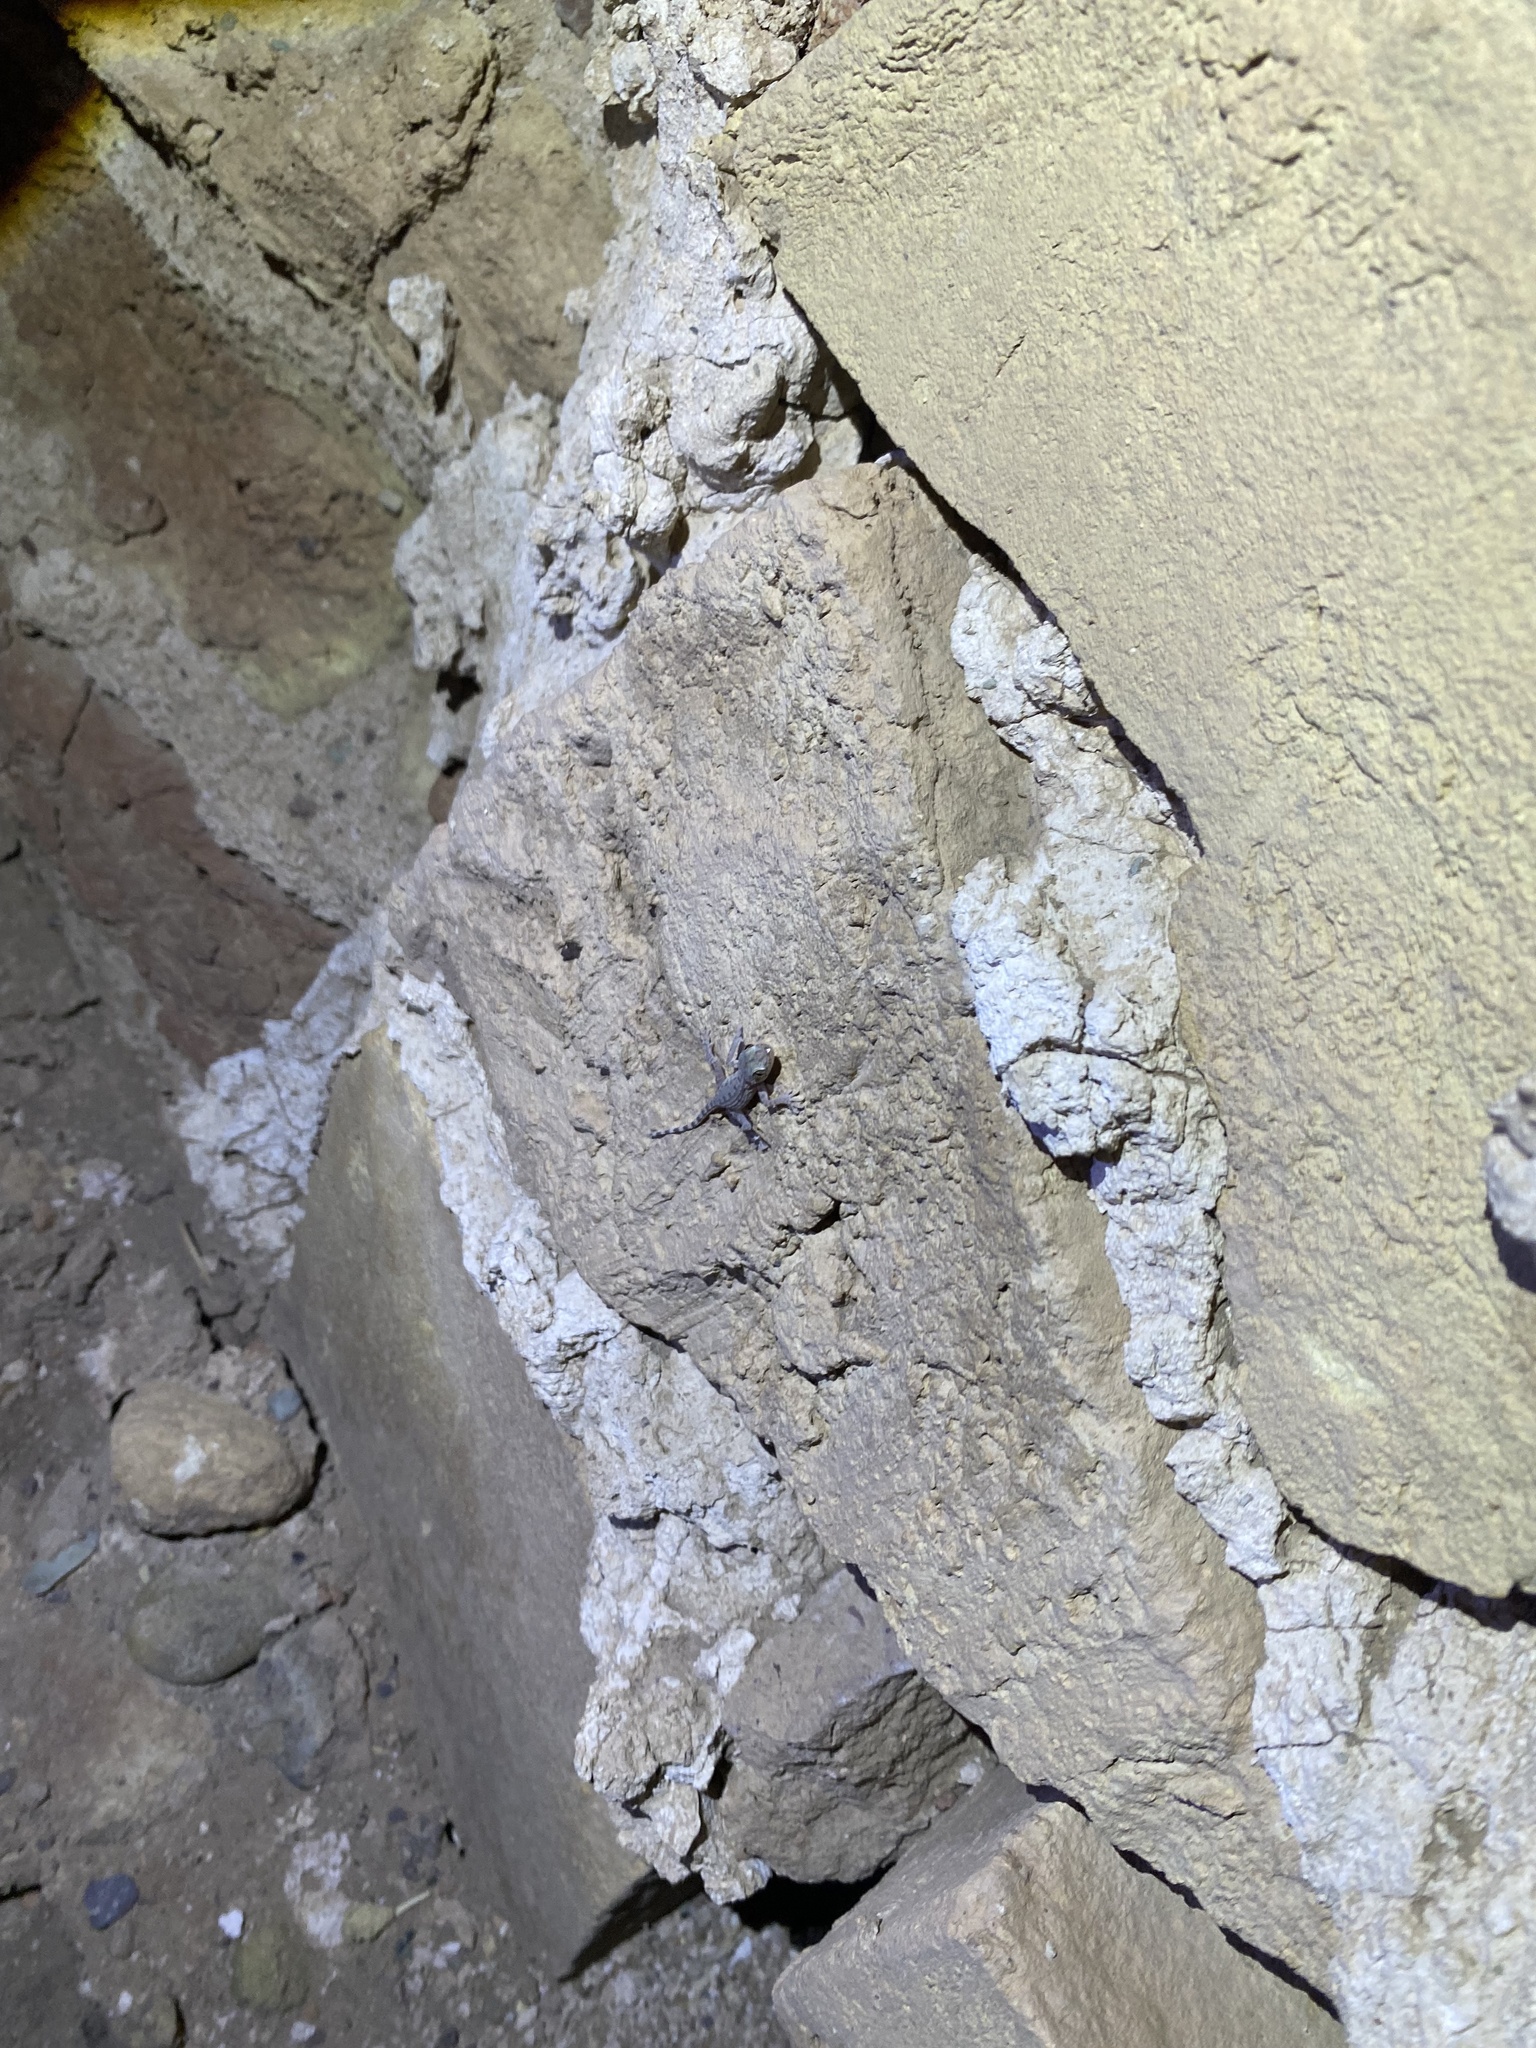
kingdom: Animalia
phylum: Chordata
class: Squamata
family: Gekkonidae
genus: Cyrtopodion
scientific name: Cyrtopodion scabrum
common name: Rough-tailed gecko
